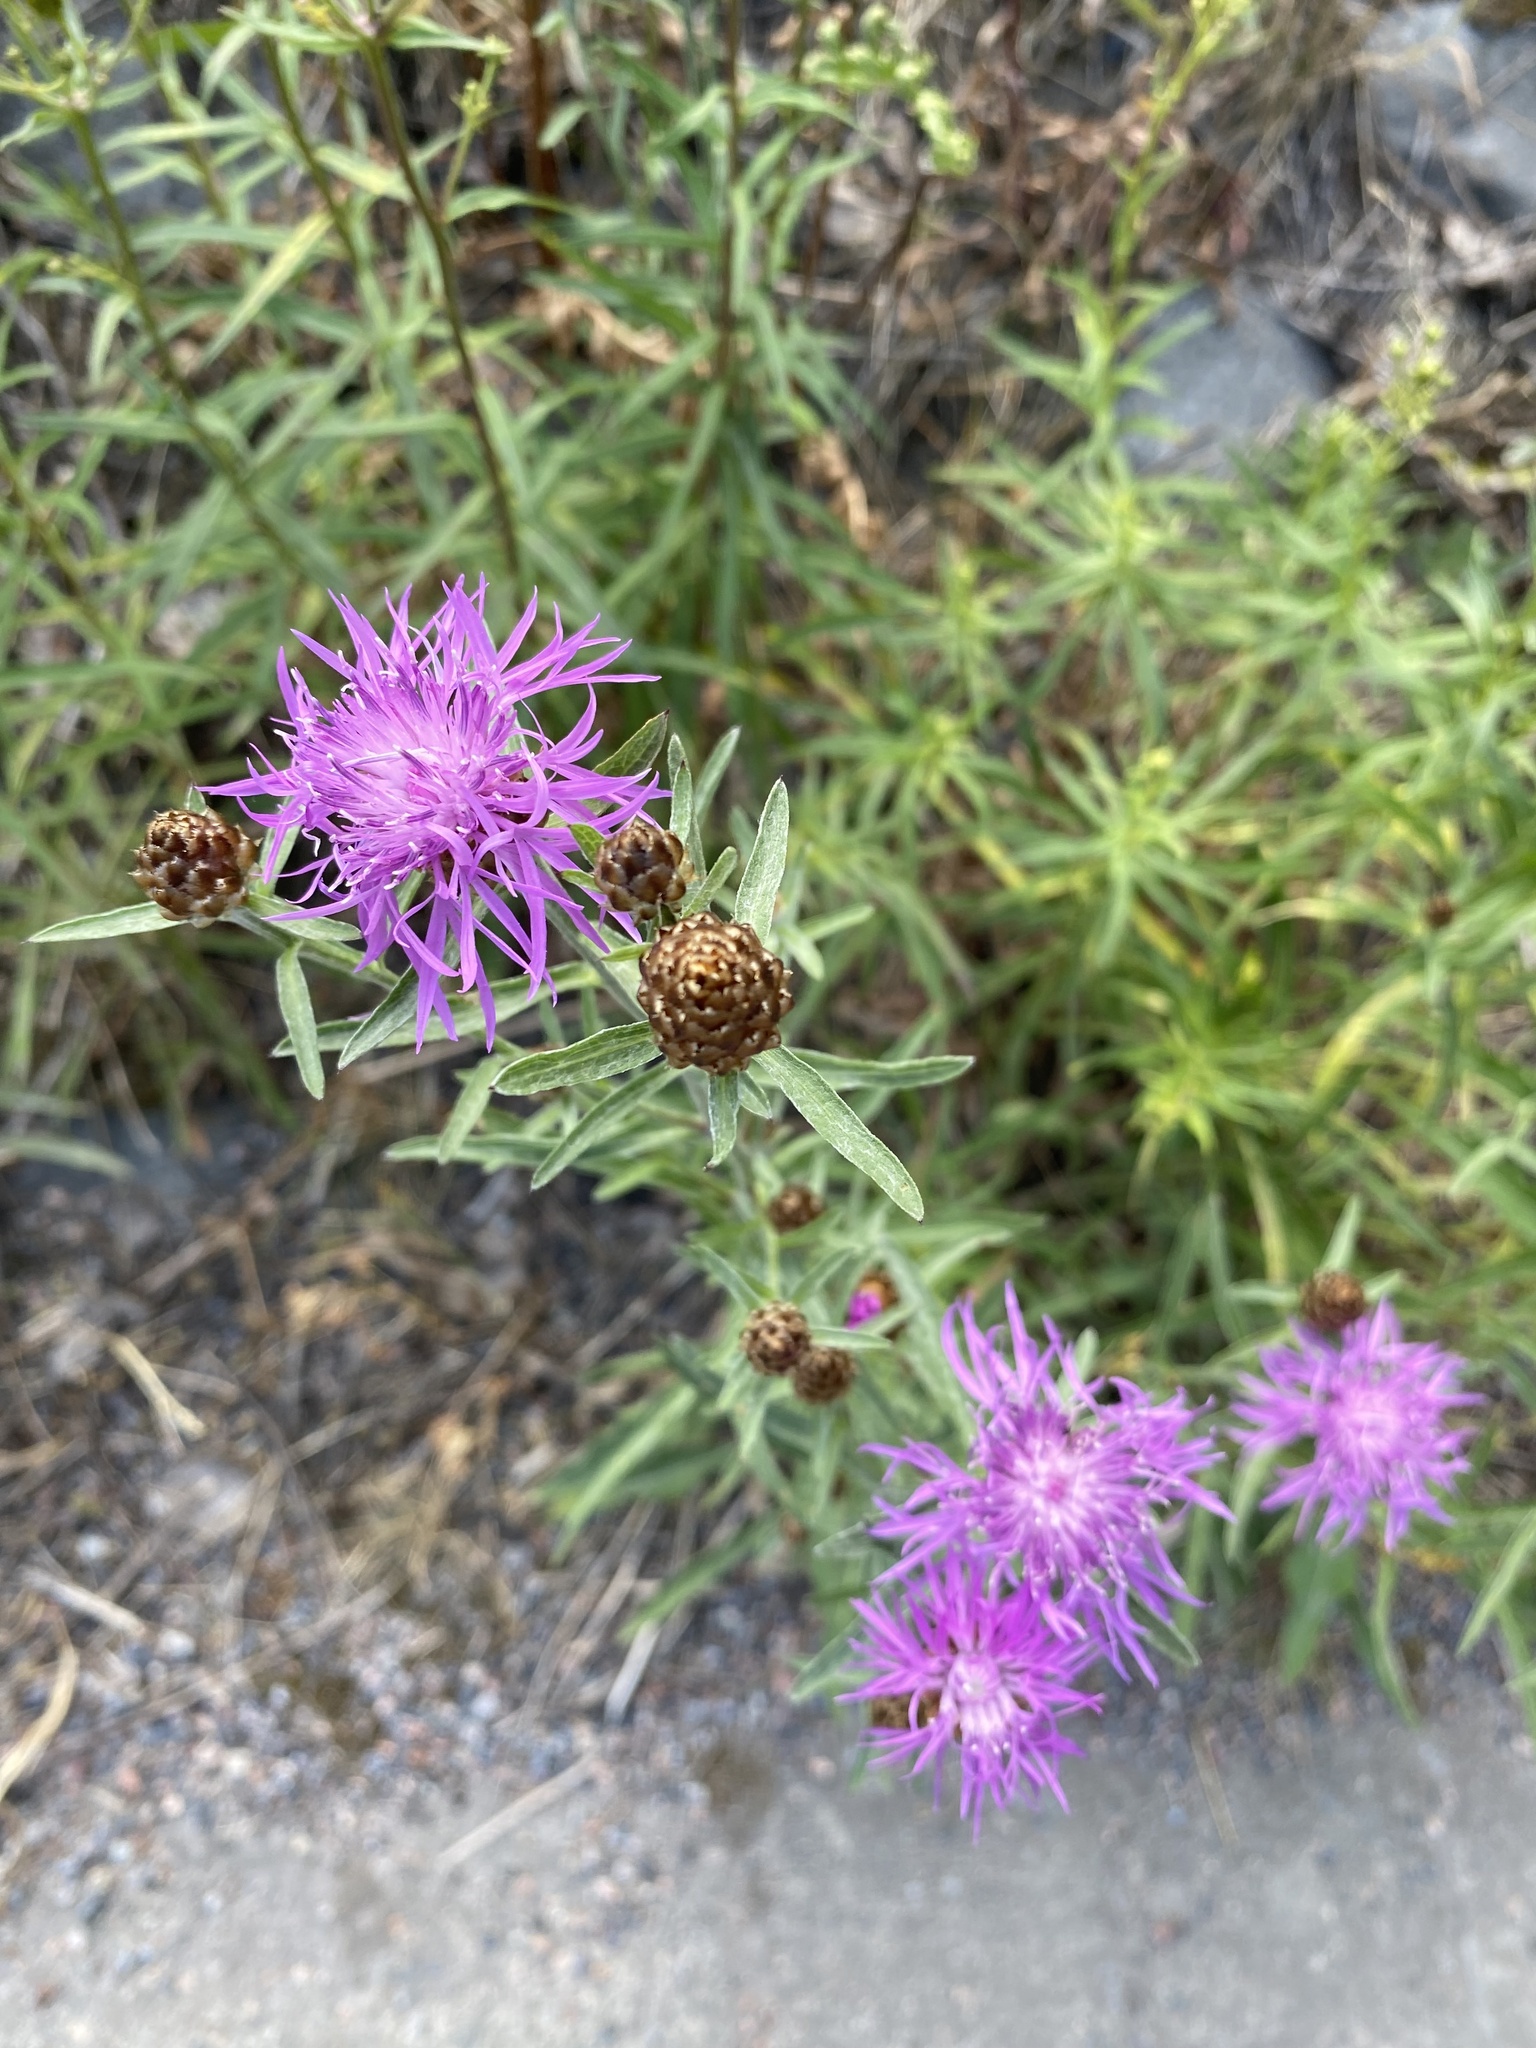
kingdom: Plantae
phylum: Tracheophyta
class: Magnoliopsida
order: Asterales
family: Asteraceae
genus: Centaurea
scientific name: Centaurea jacea
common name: Brown knapweed
